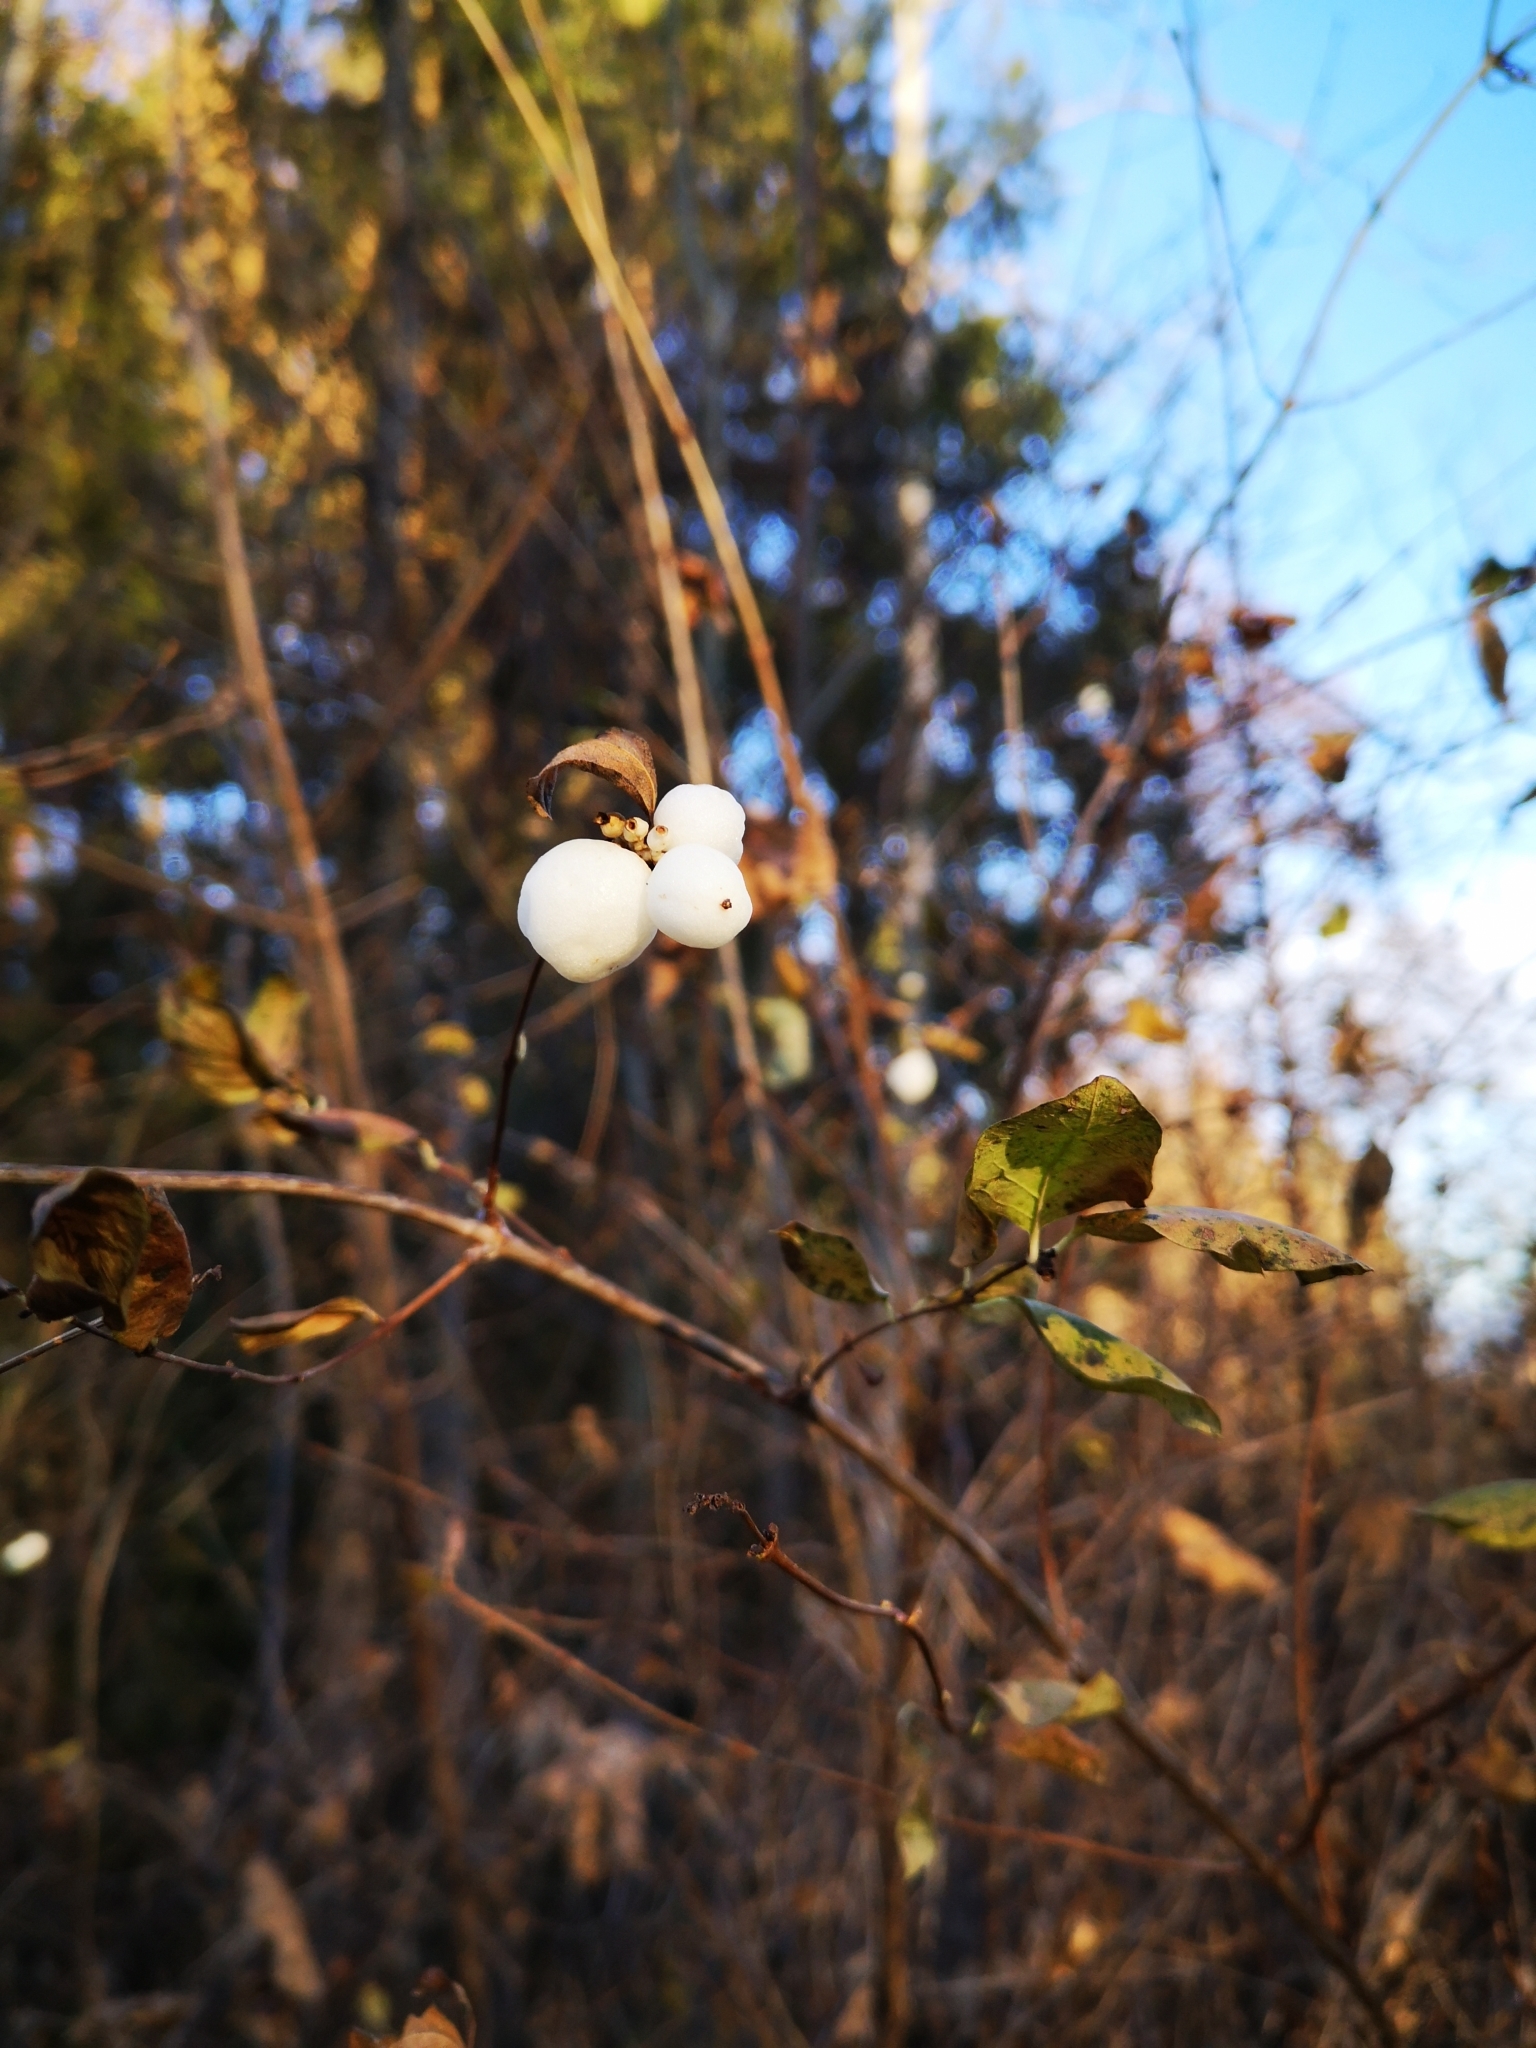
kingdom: Plantae
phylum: Tracheophyta
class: Magnoliopsida
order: Dipsacales
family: Caprifoliaceae
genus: Symphoricarpos
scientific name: Symphoricarpos albus
